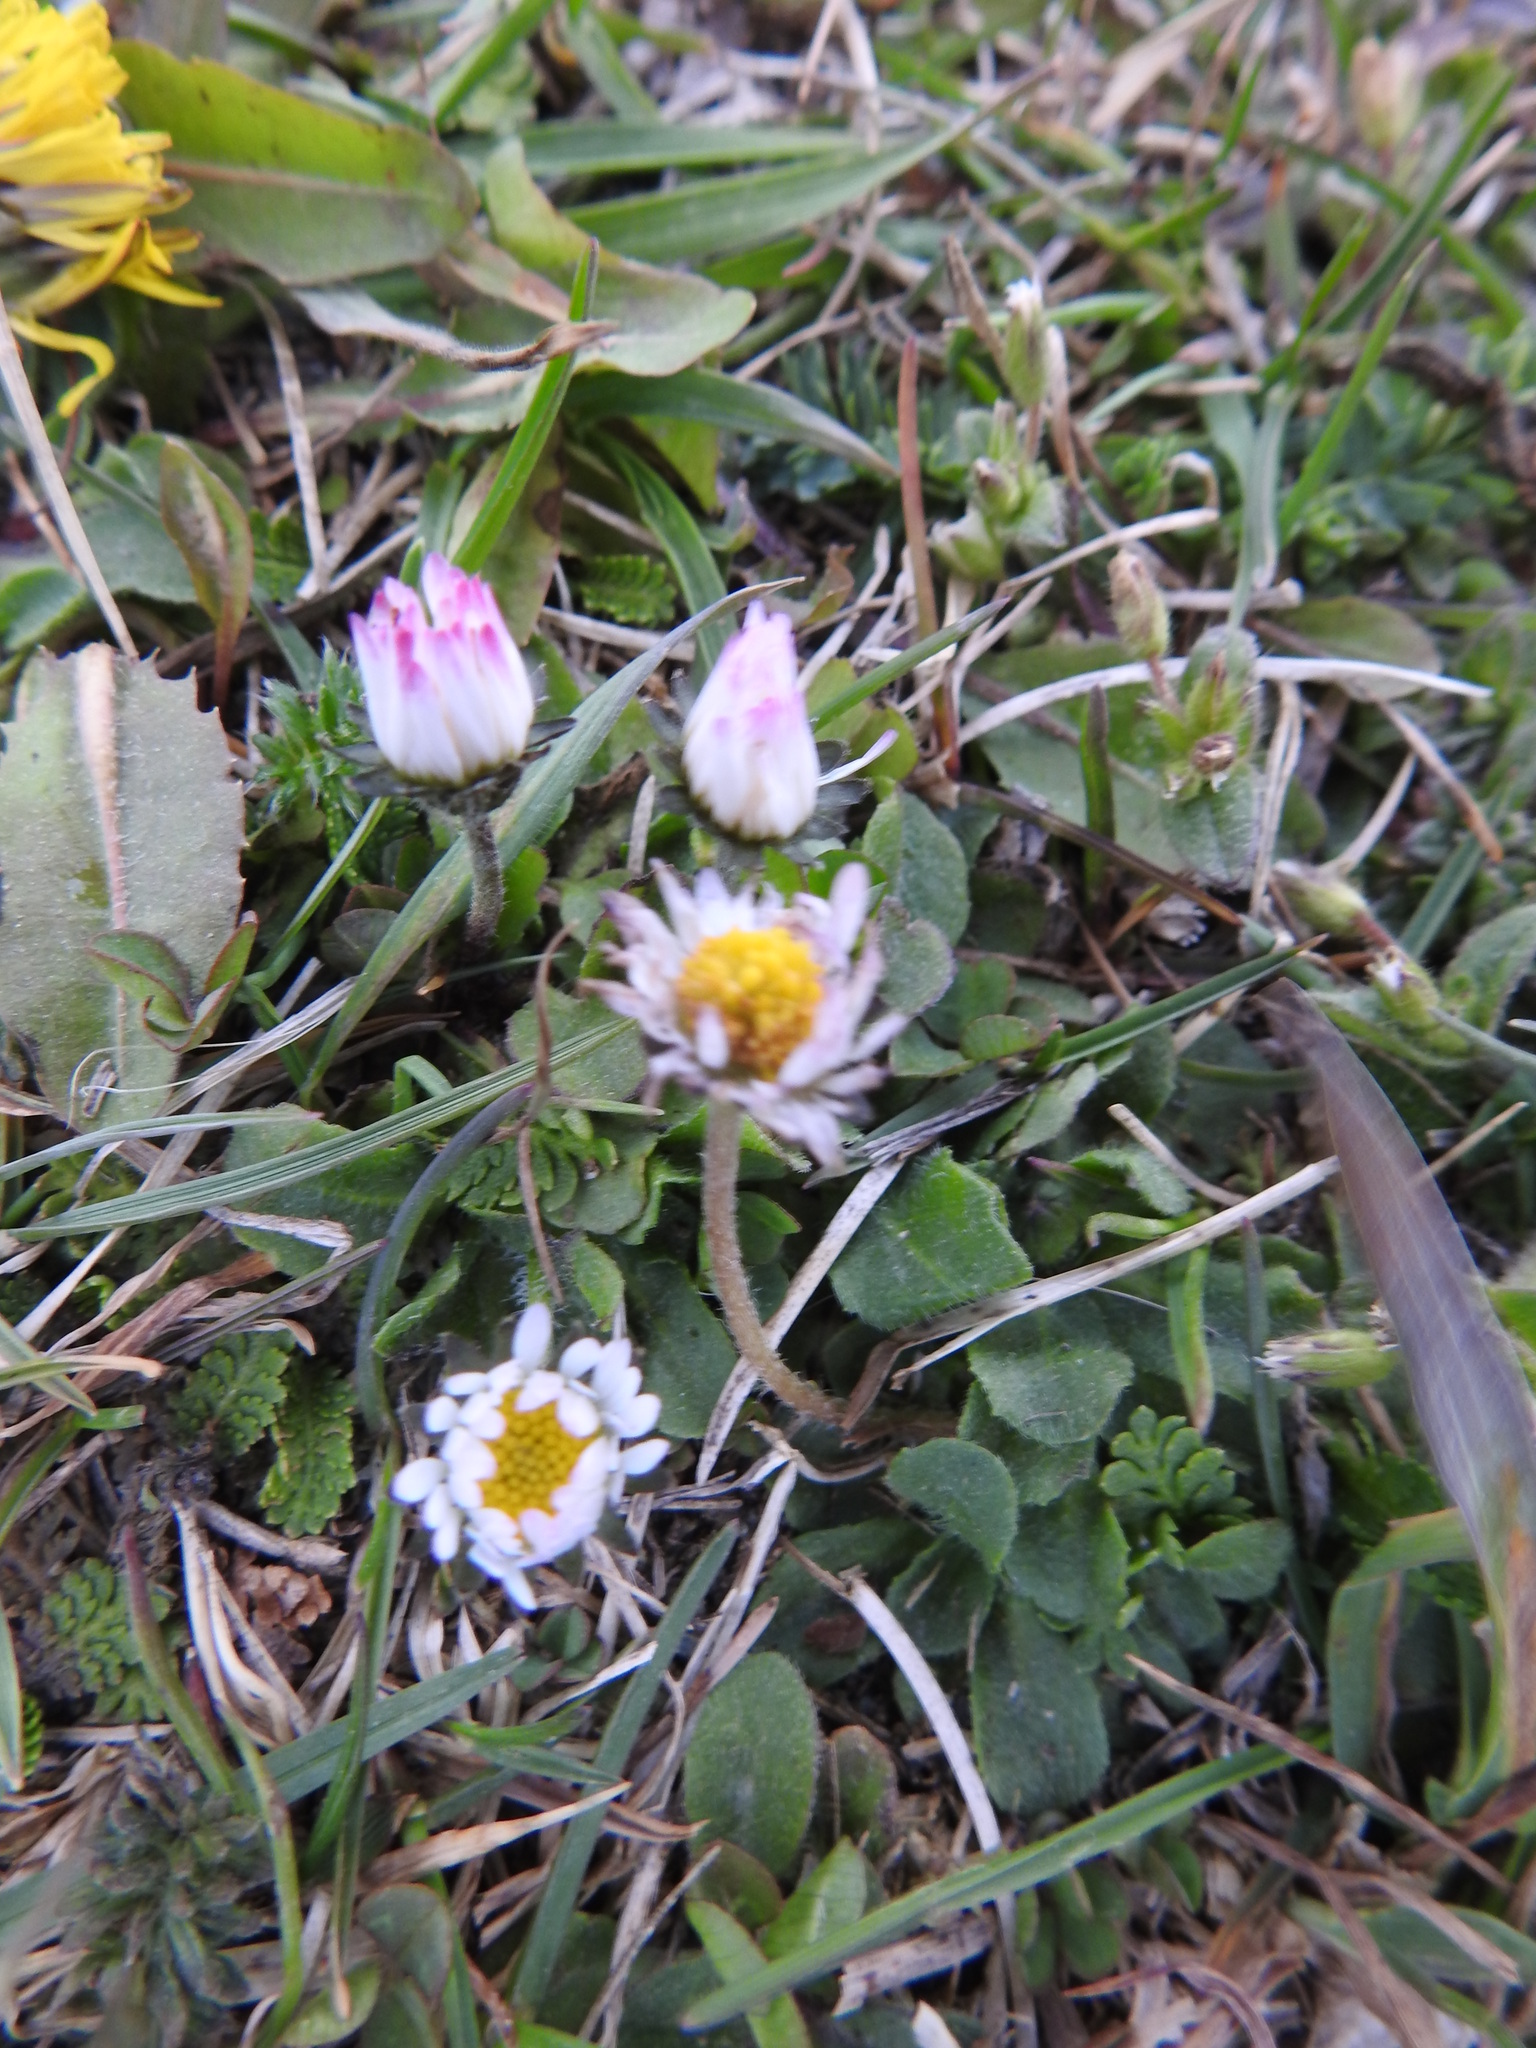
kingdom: Plantae
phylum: Tracheophyta
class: Magnoliopsida
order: Asterales
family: Asteraceae
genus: Bellis
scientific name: Bellis perennis
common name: Lawndaisy
